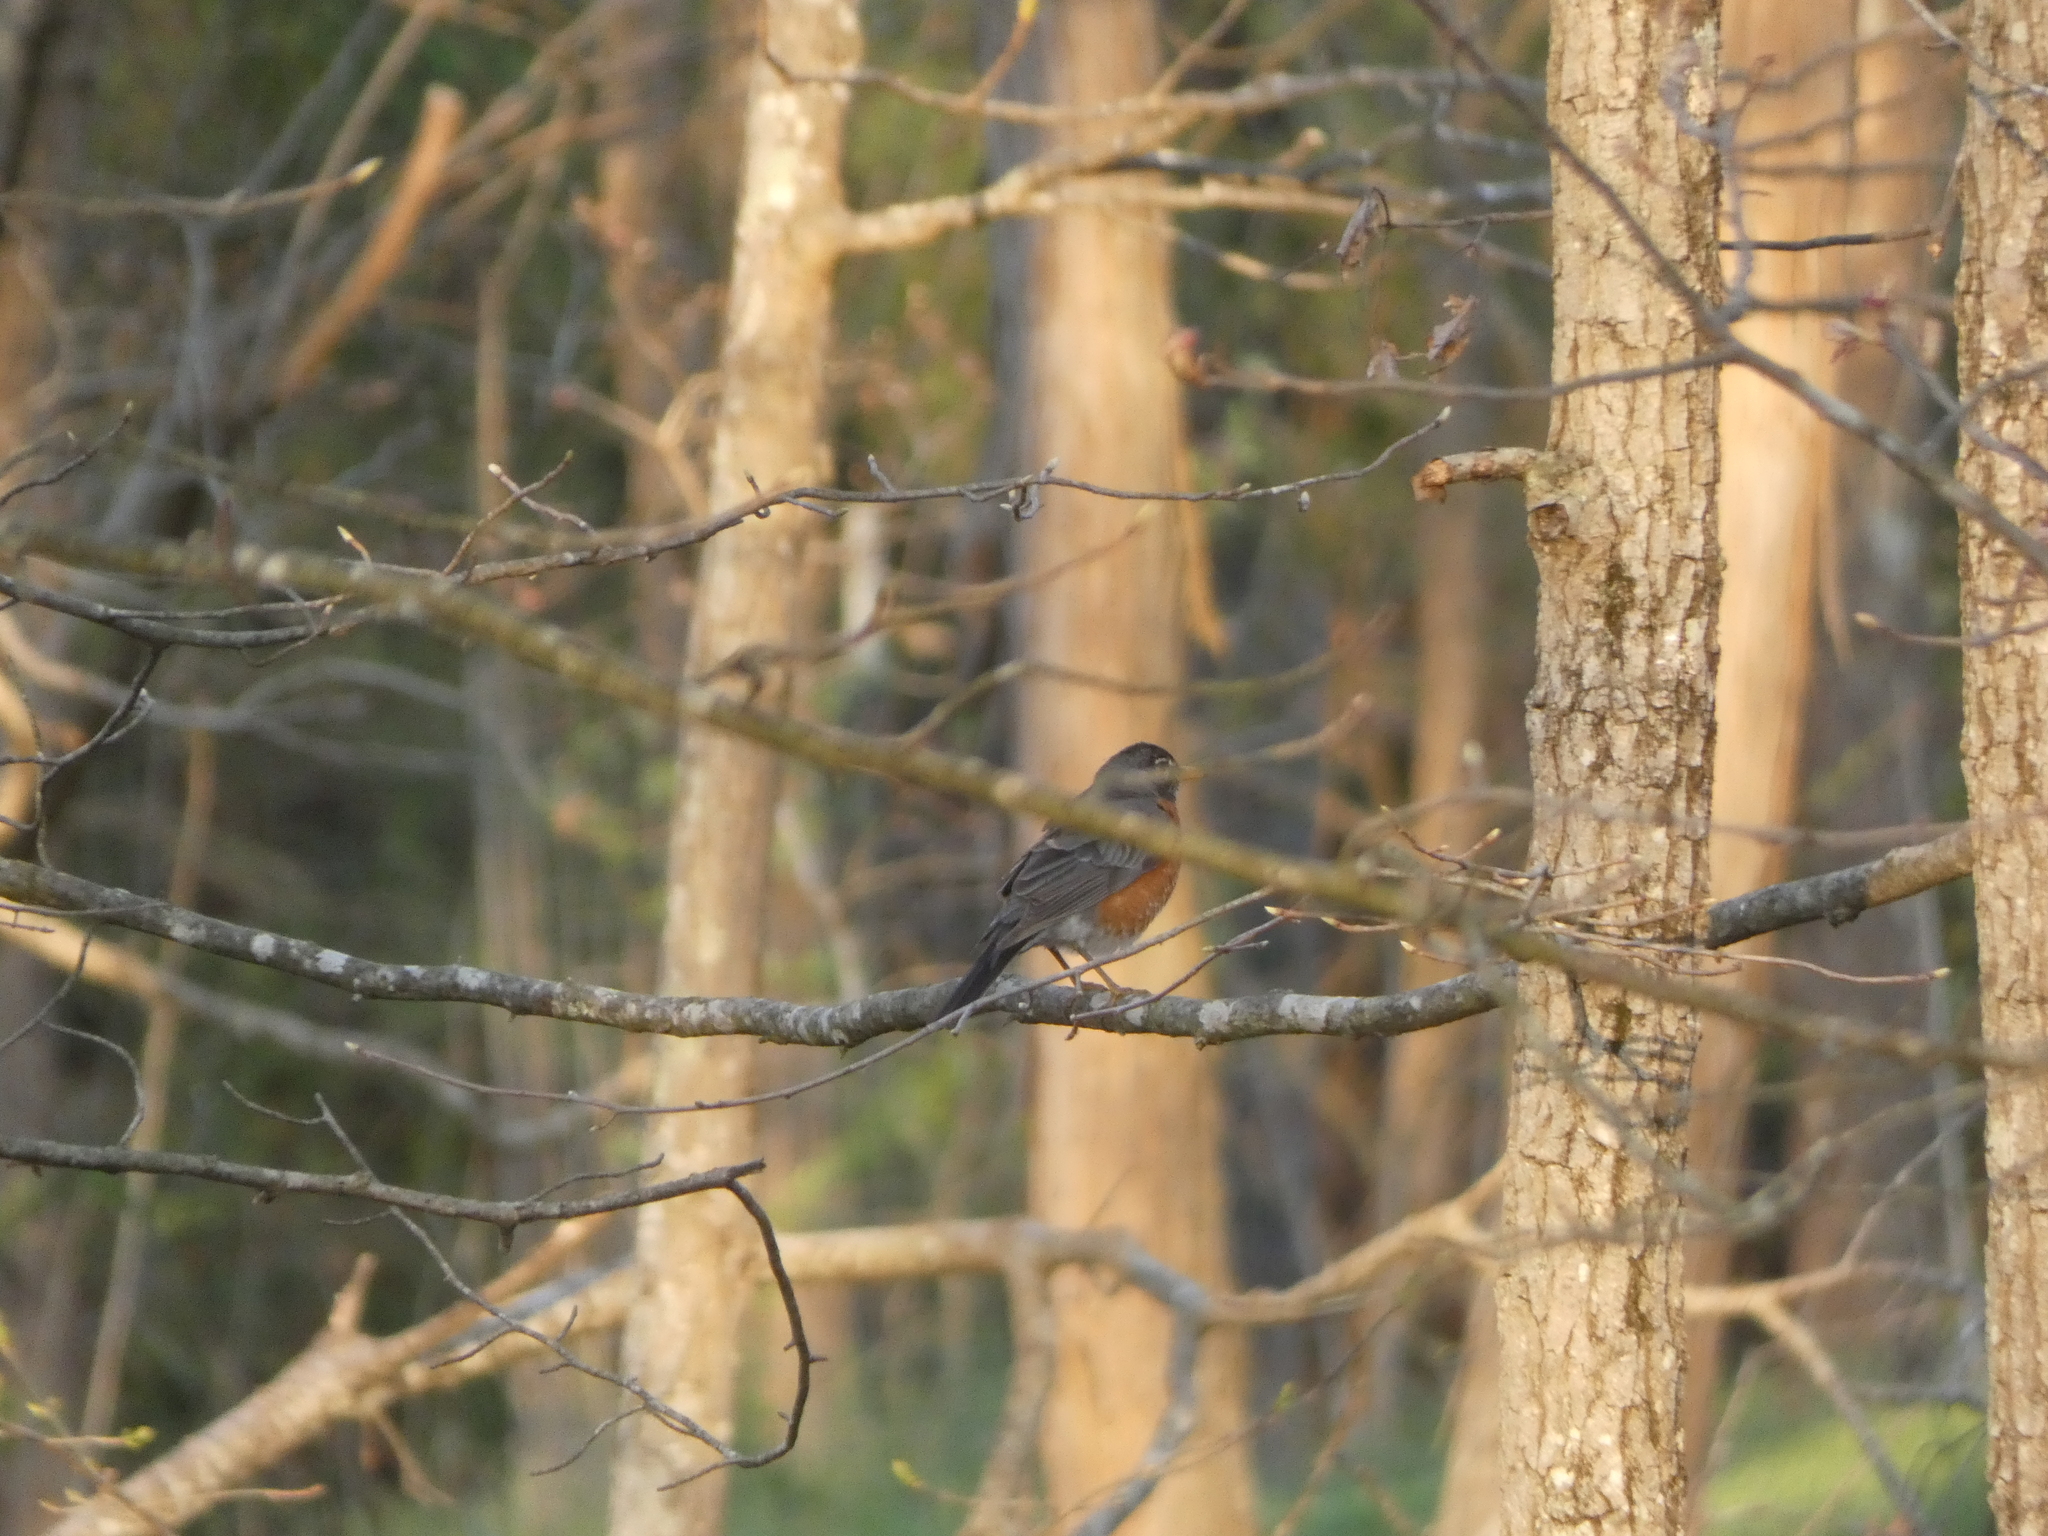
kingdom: Animalia
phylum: Chordata
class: Aves
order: Passeriformes
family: Turdidae
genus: Turdus
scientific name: Turdus migratorius
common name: American robin
